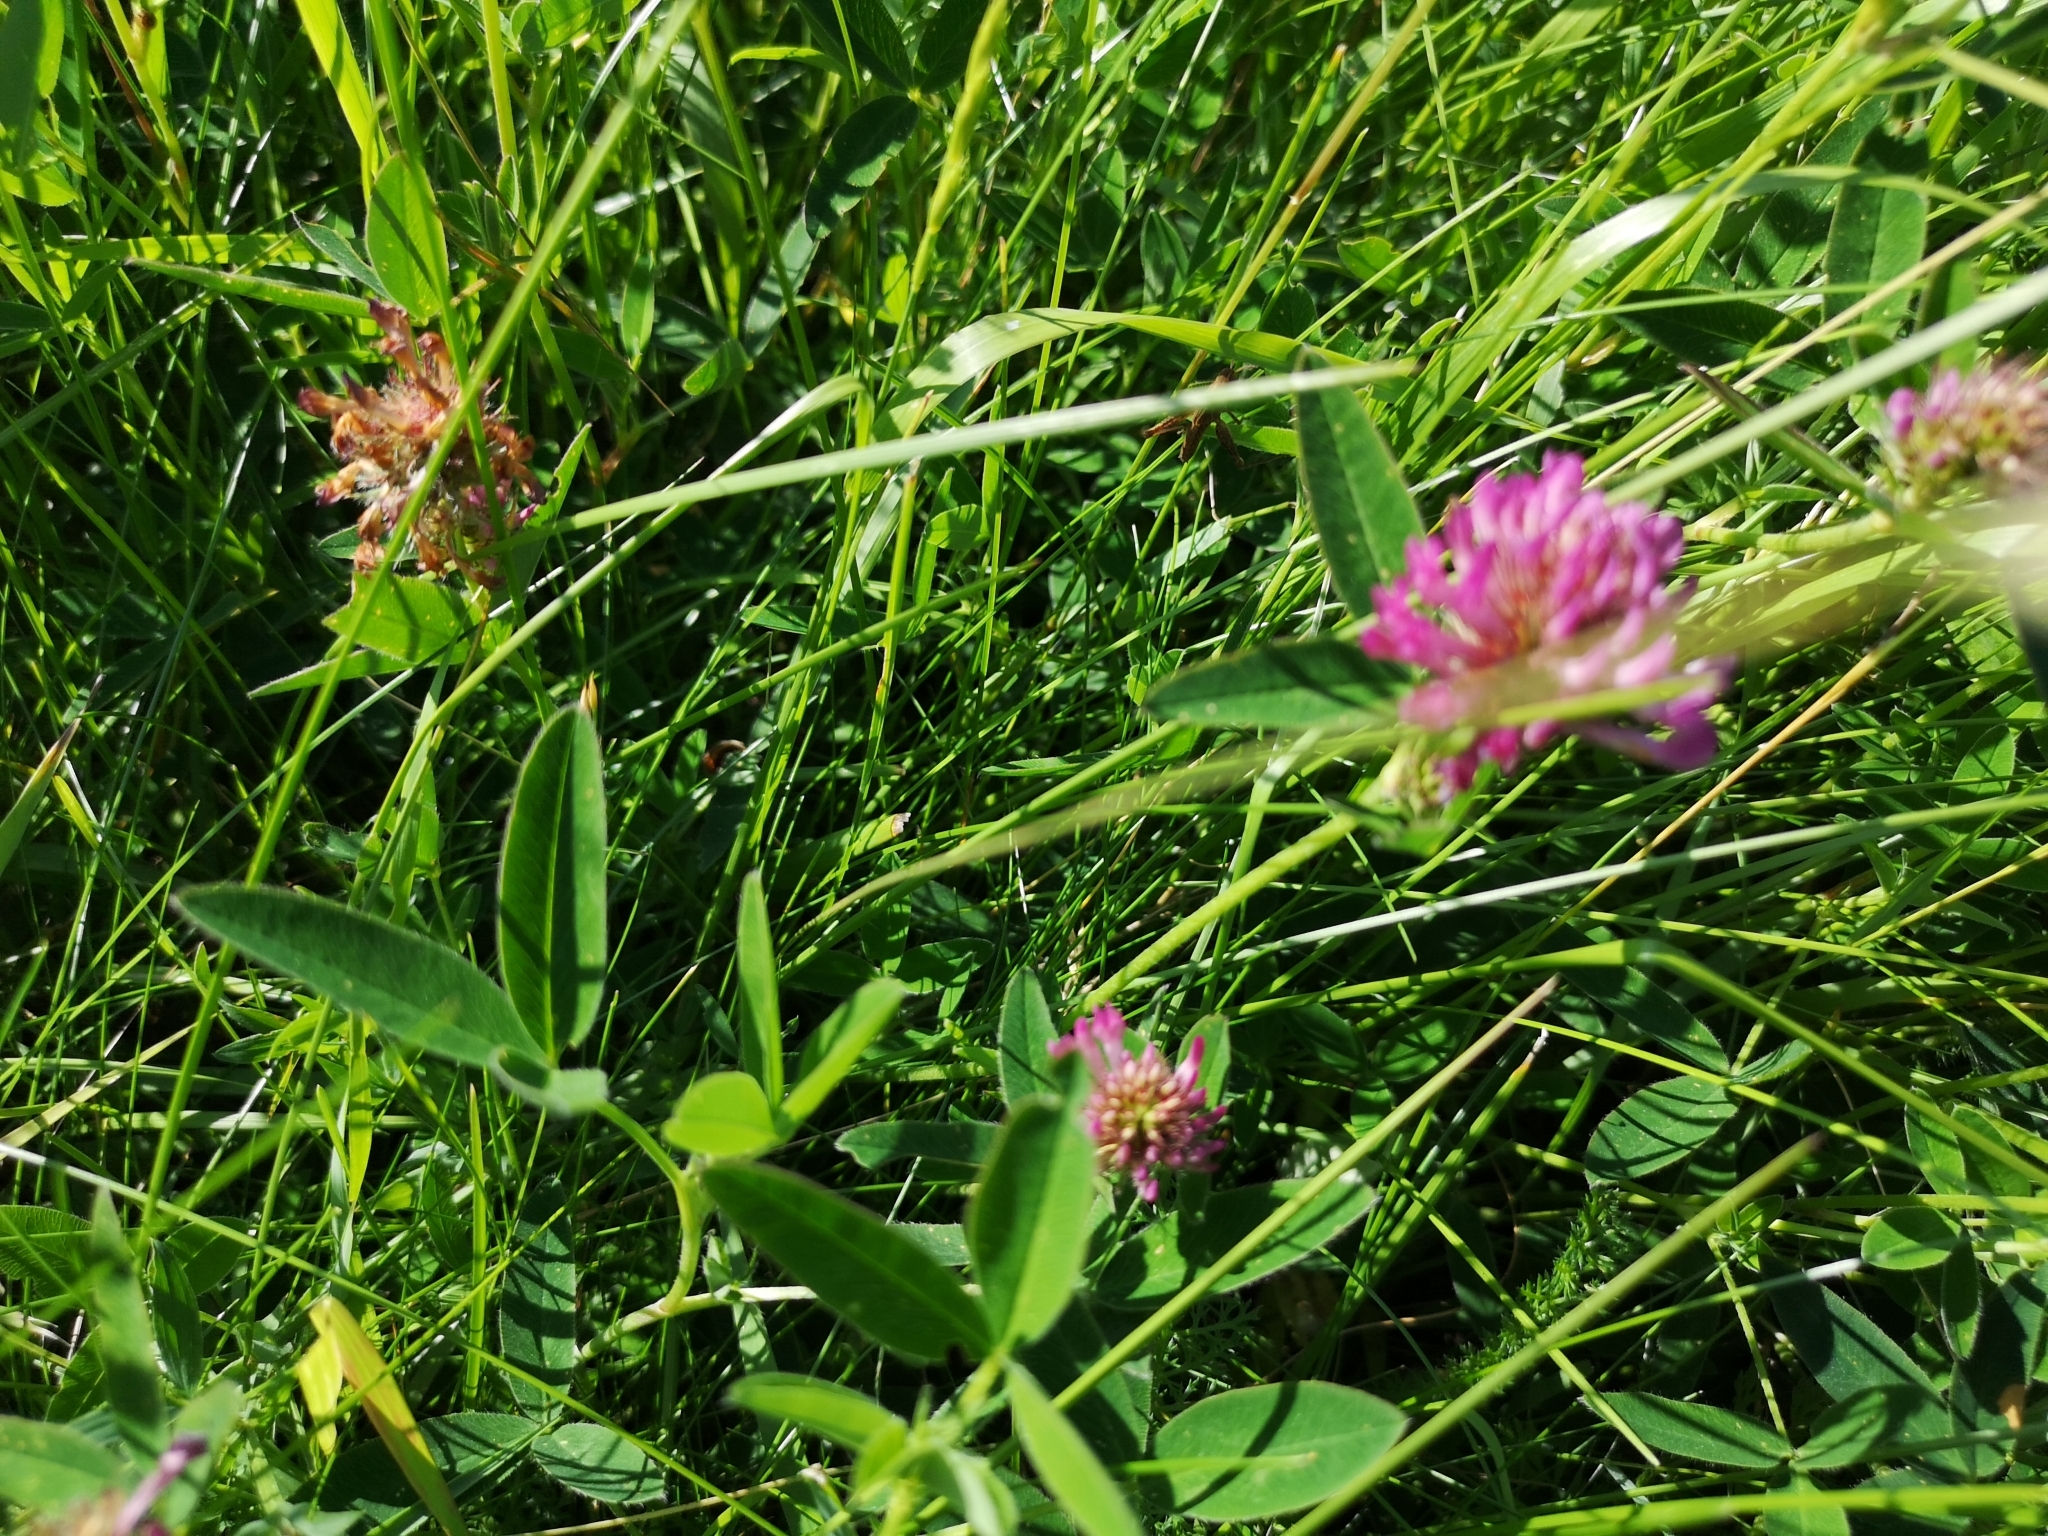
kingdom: Plantae
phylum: Tracheophyta
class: Magnoliopsida
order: Fabales
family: Fabaceae
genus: Trifolium
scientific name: Trifolium medium
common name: Zigzag clover
